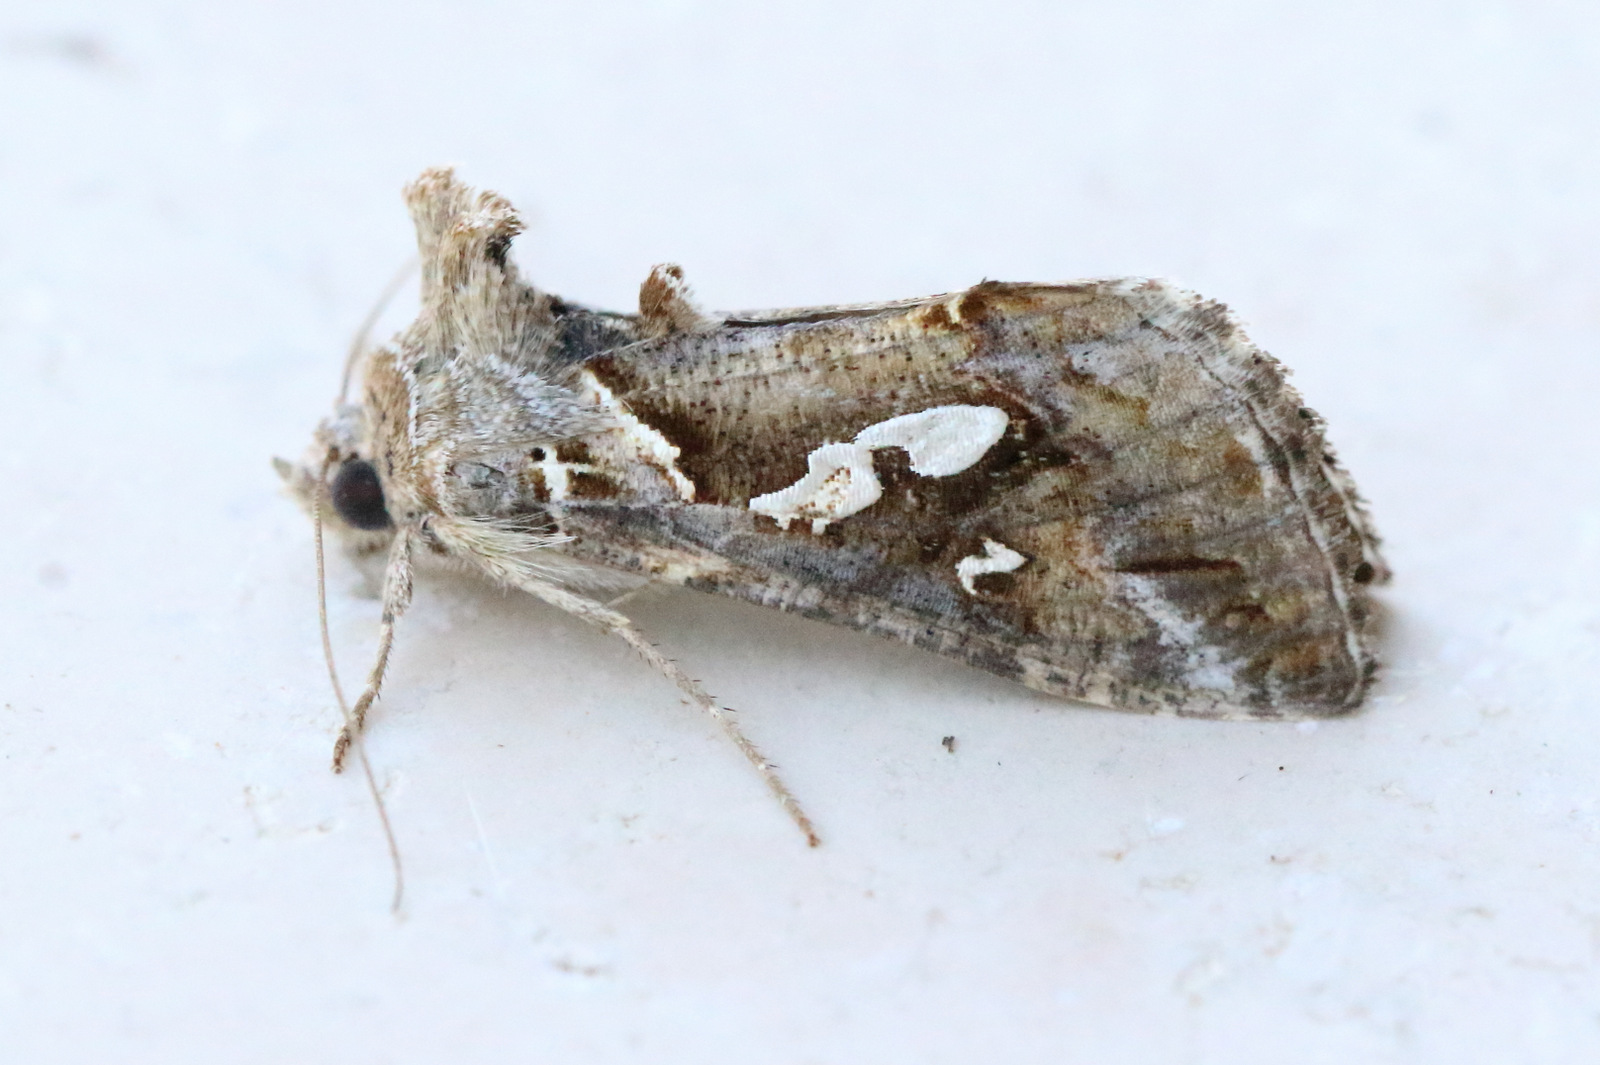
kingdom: Animalia
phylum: Arthropoda
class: Insecta
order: Lepidoptera
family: Noctuidae
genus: Chrysodeixis
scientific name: Chrysodeixis argentifera
